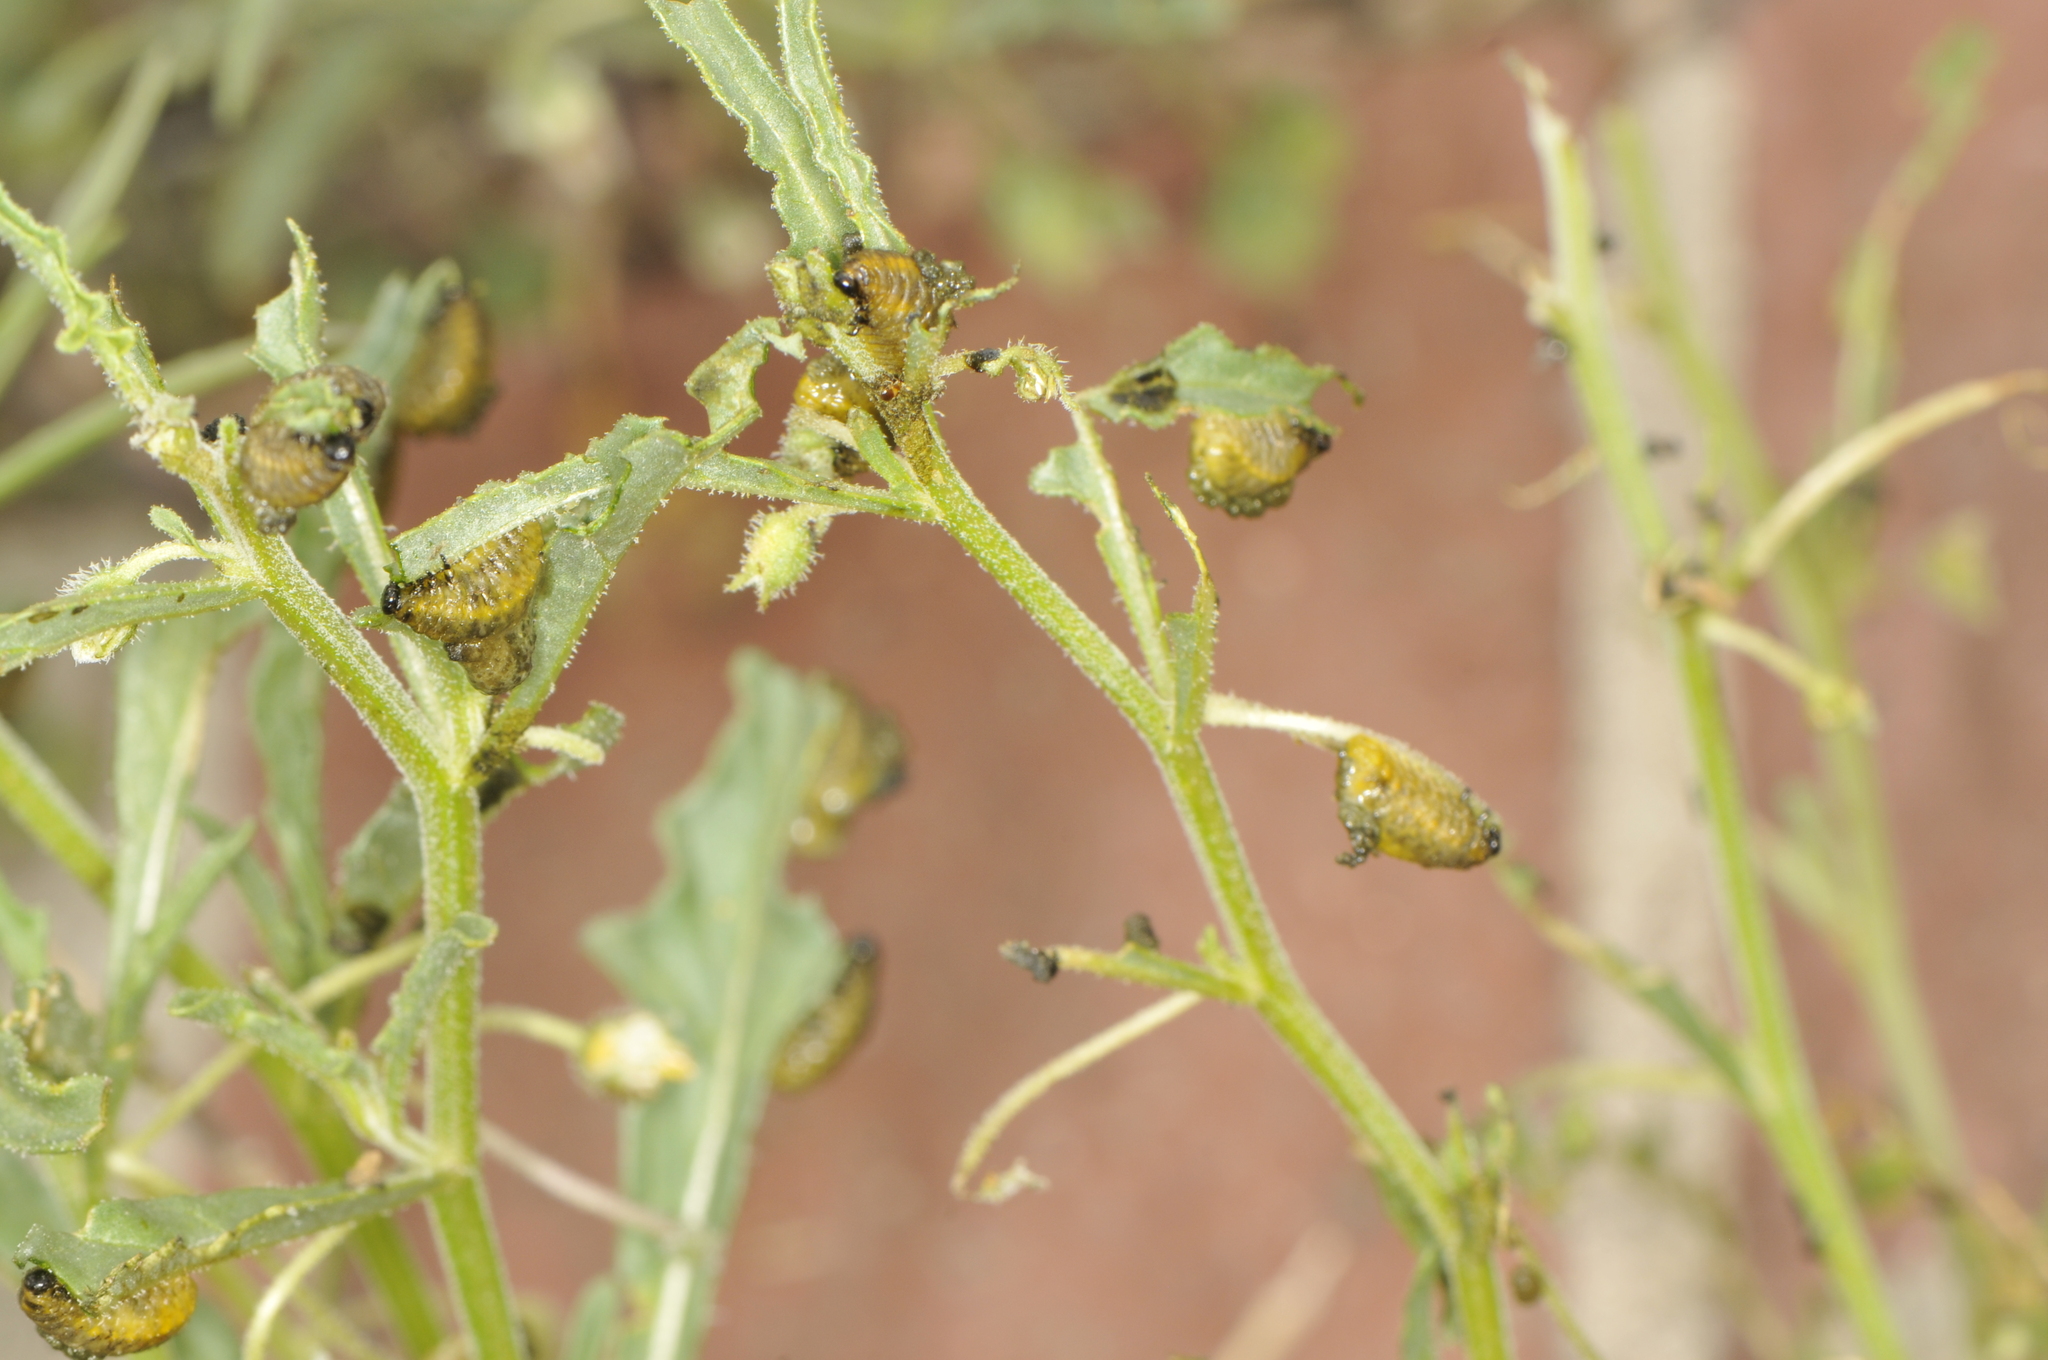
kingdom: Animalia
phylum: Arthropoda
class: Insecta
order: Coleoptera
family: Chrysomelidae
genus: Lema
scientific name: Lema
